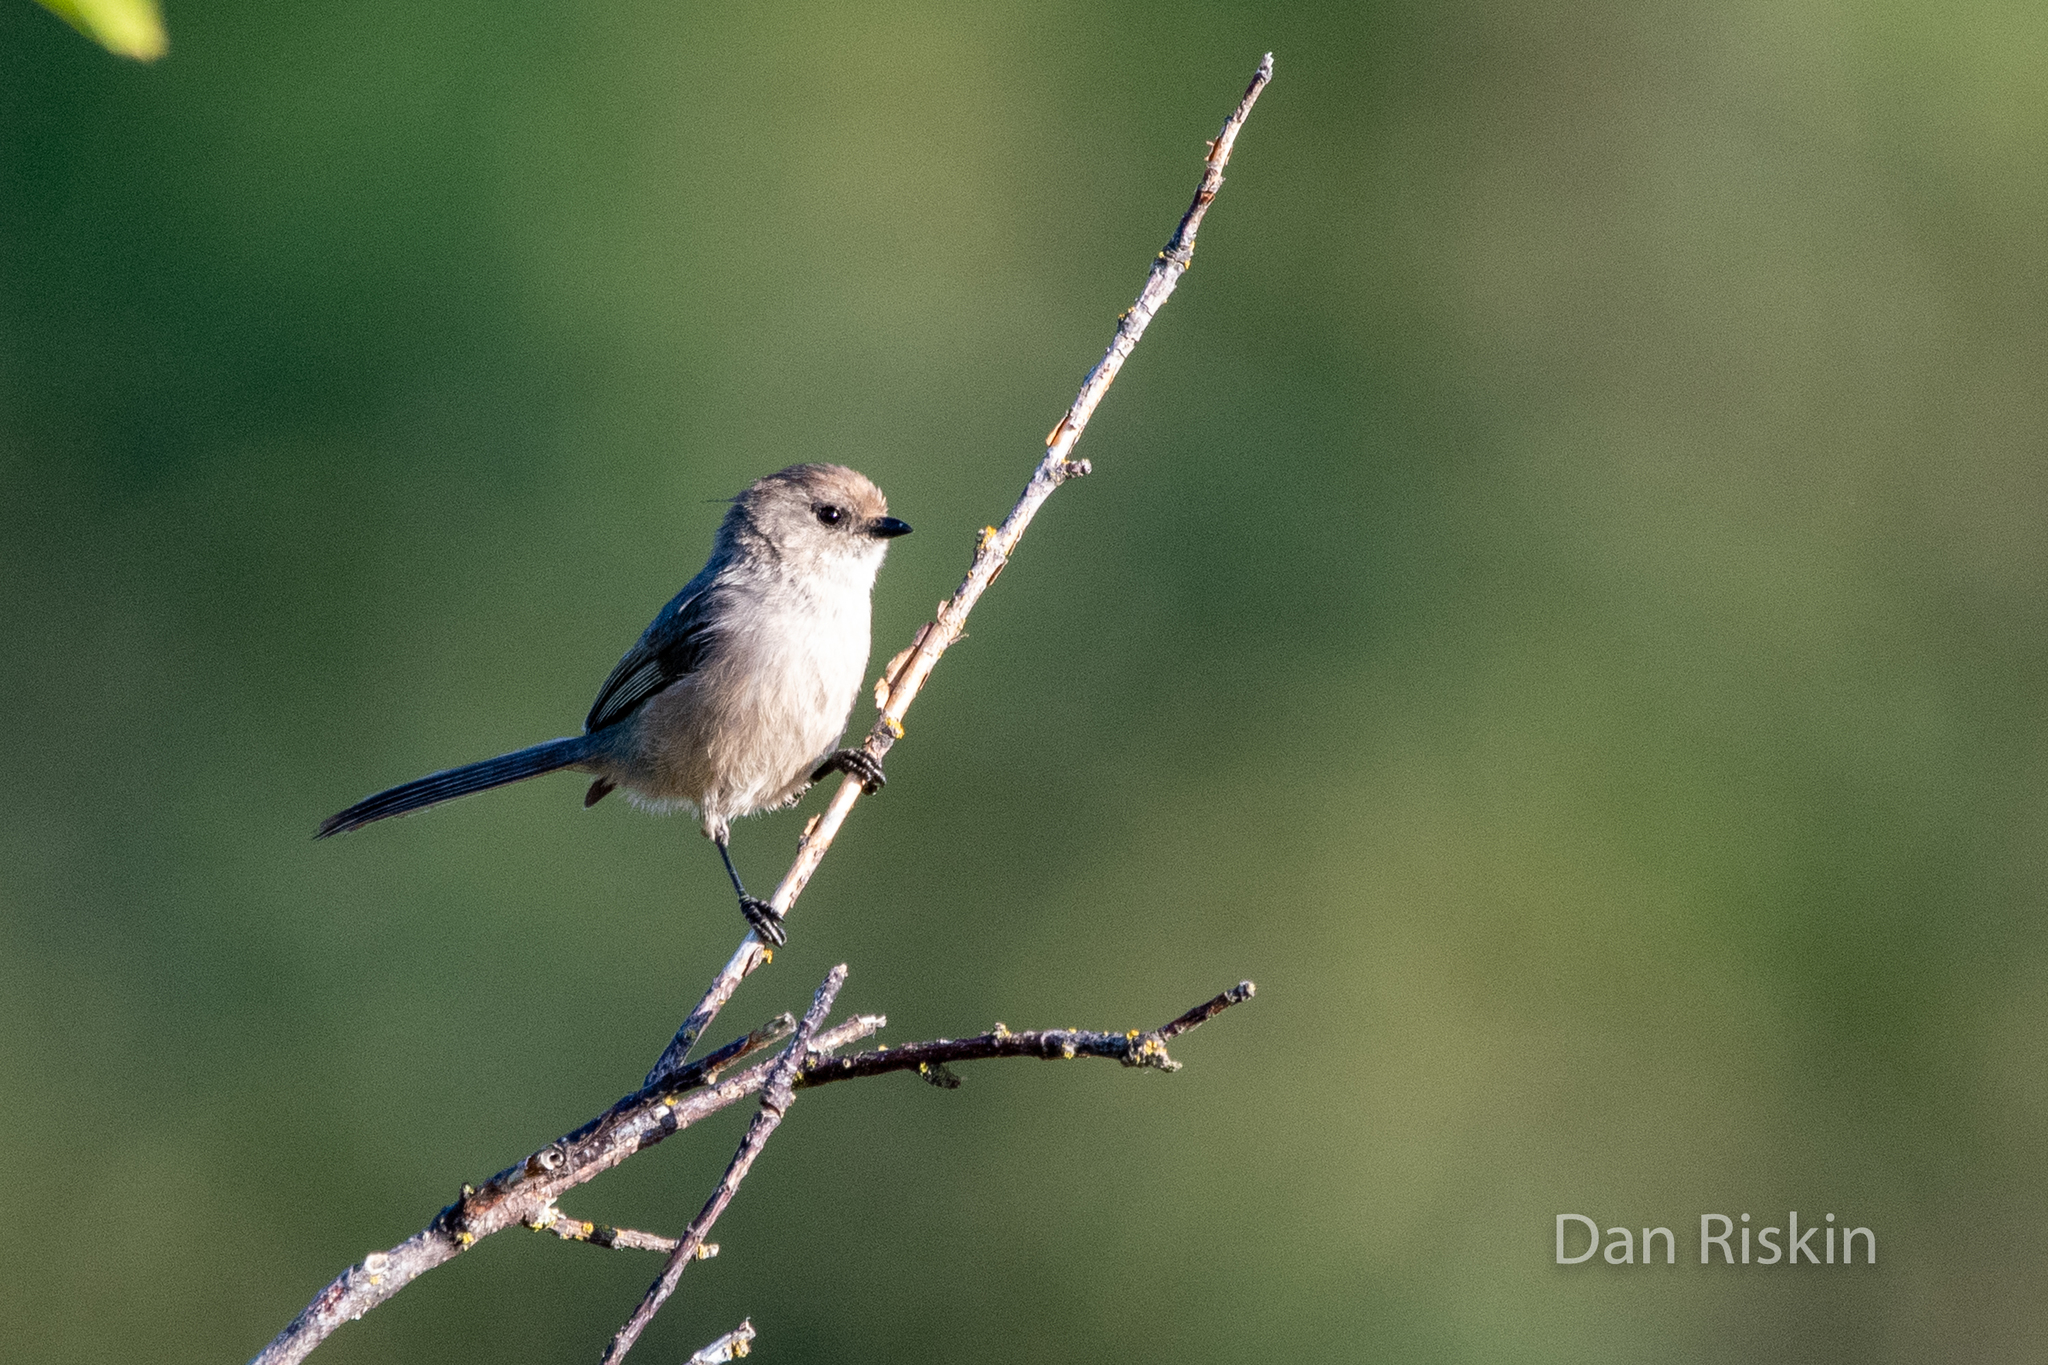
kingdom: Animalia
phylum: Chordata
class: Aves
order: Passeriformes
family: Aegithalidae
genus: Psaltriparus
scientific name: Psaltriparus minimus
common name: American bushtit
